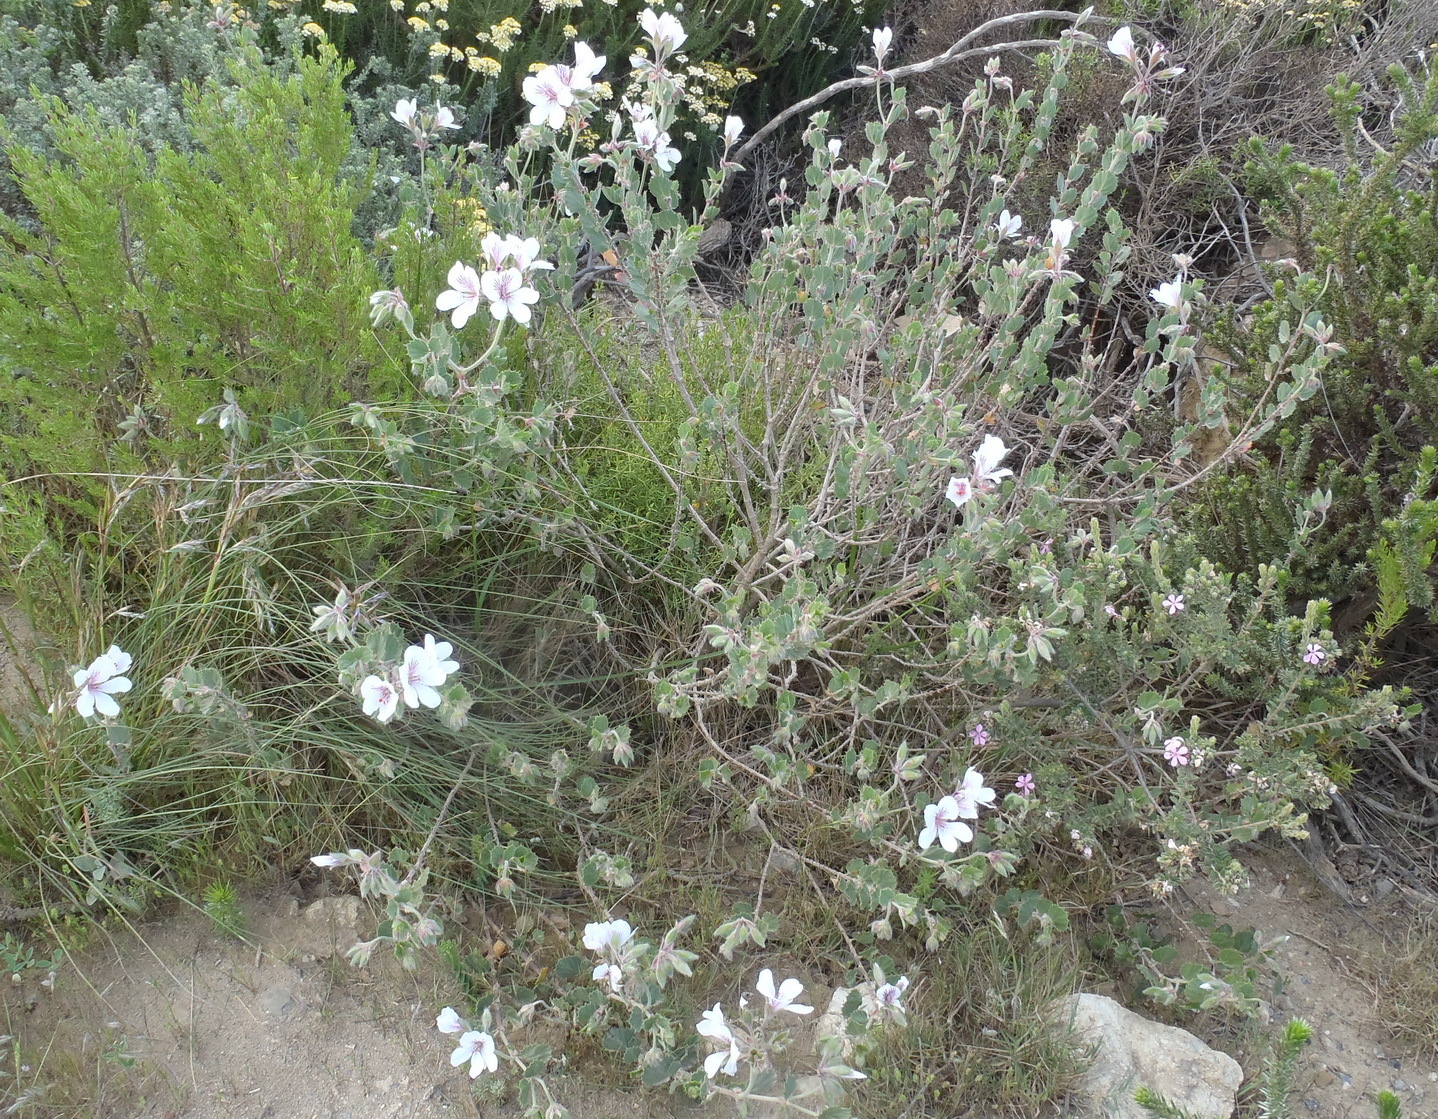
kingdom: Plantae
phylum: Tracheophyta
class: Magnoliopsida
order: Geraniales
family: Geraniaceae
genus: Pelargonium
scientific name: Pelargonium betulinum
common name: Birch-leaf pelargonium
